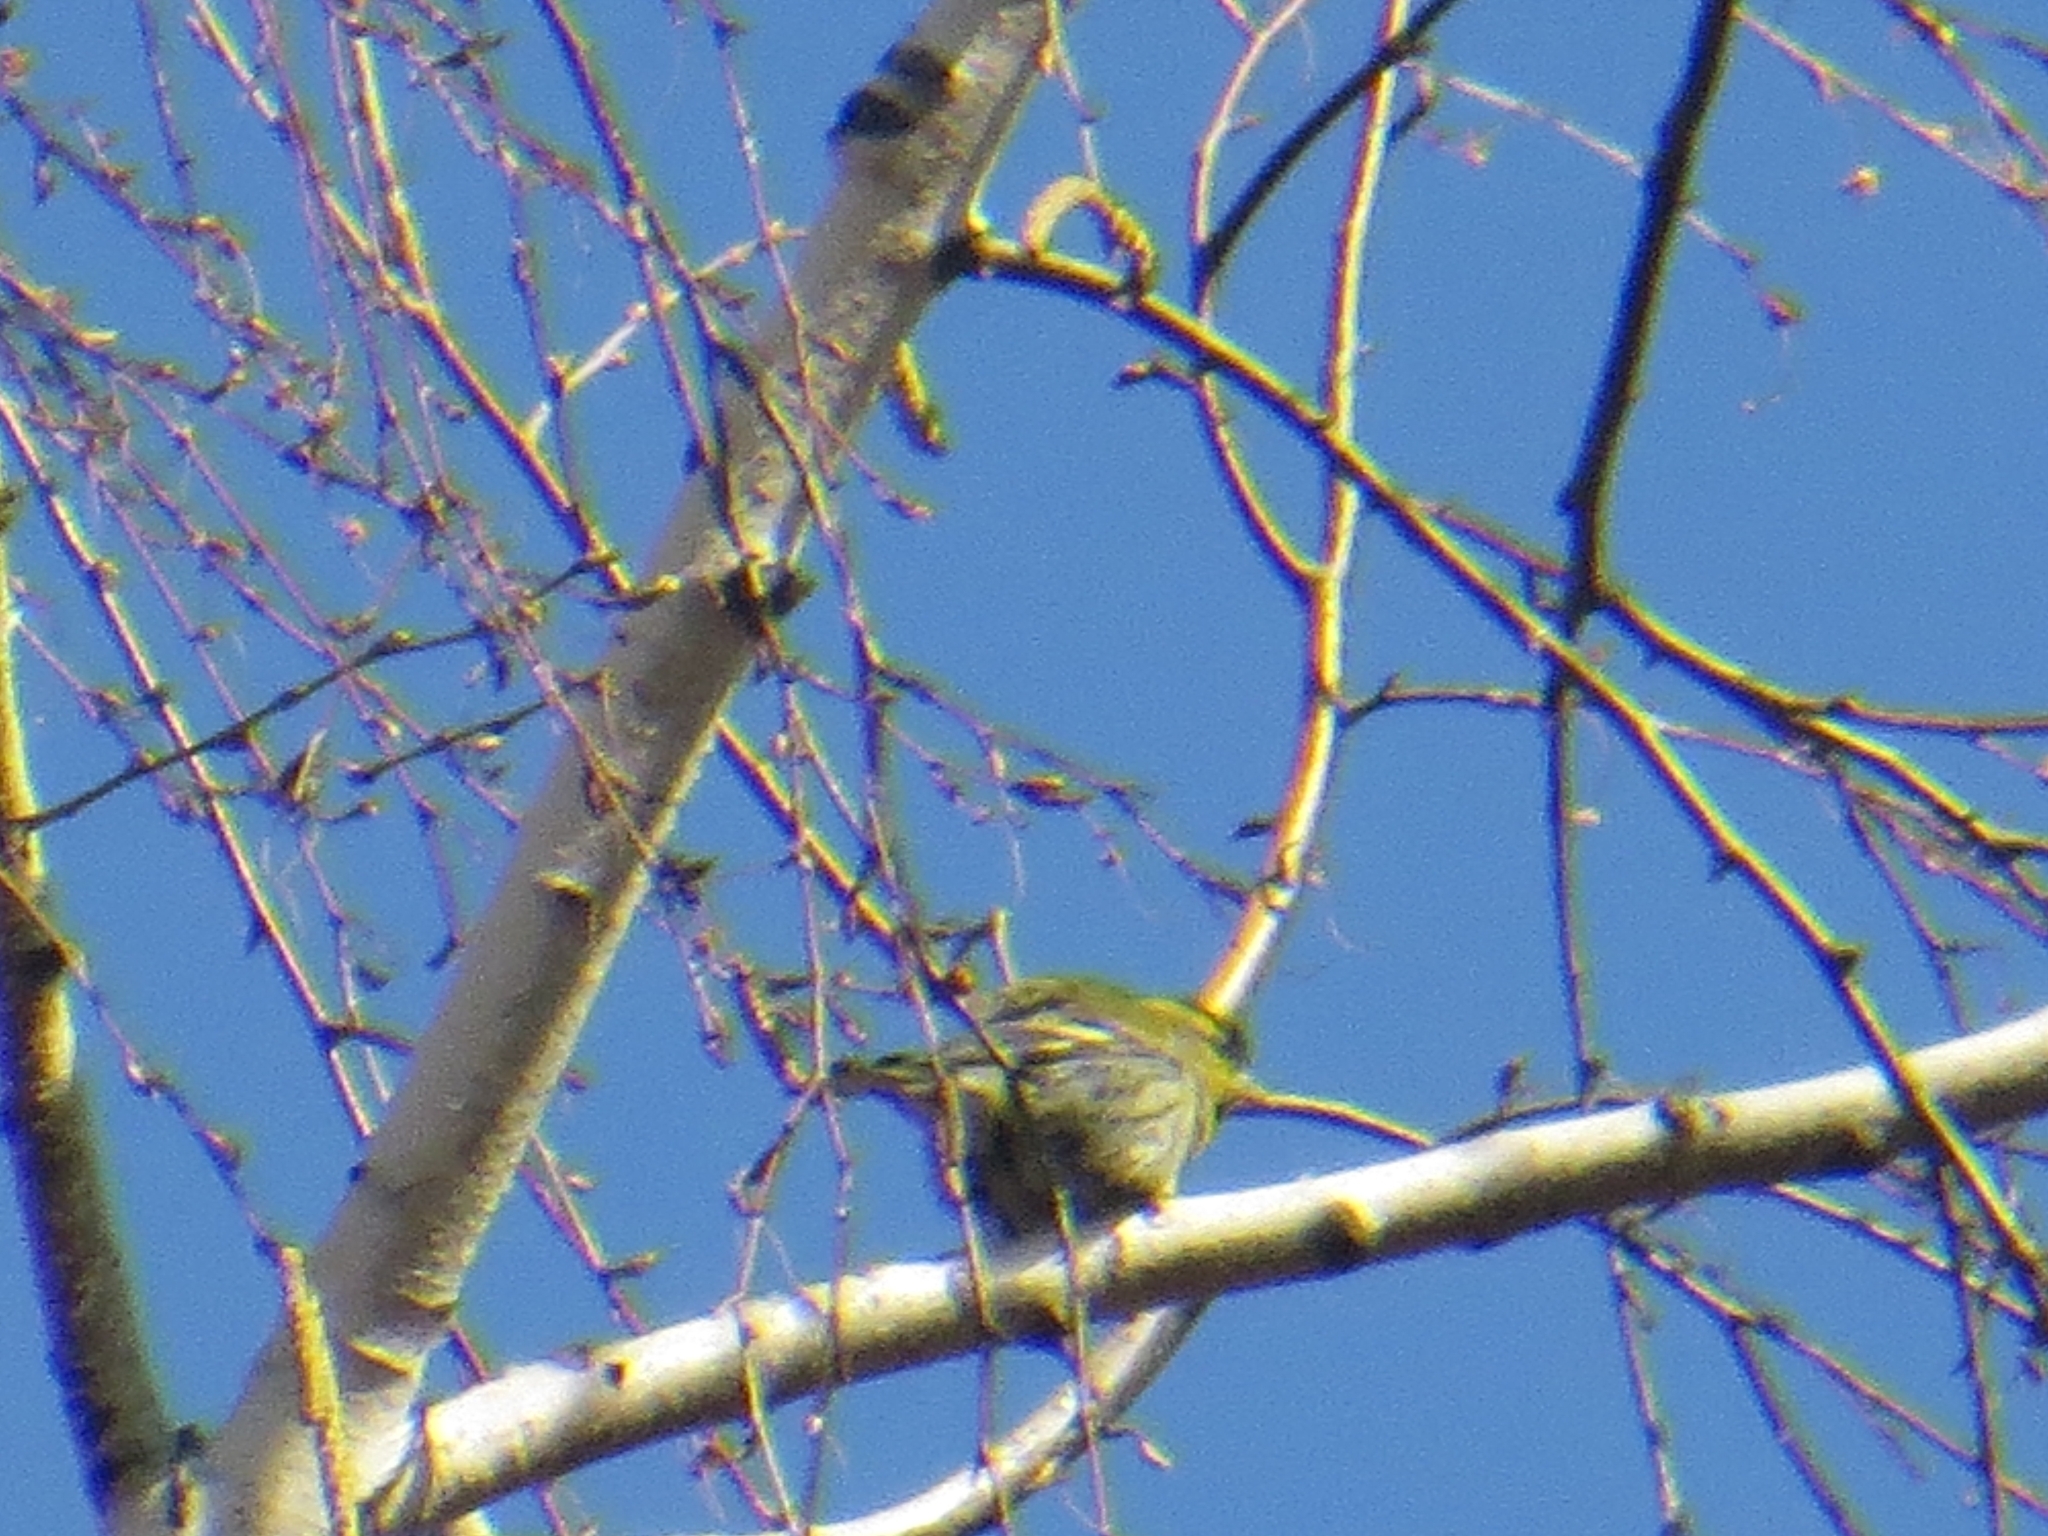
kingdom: Animalia
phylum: Chordata
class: Aves
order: Passeriformes
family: Fringillidae
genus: Spinus
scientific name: Spinus spinus
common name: Eurasian siskin
